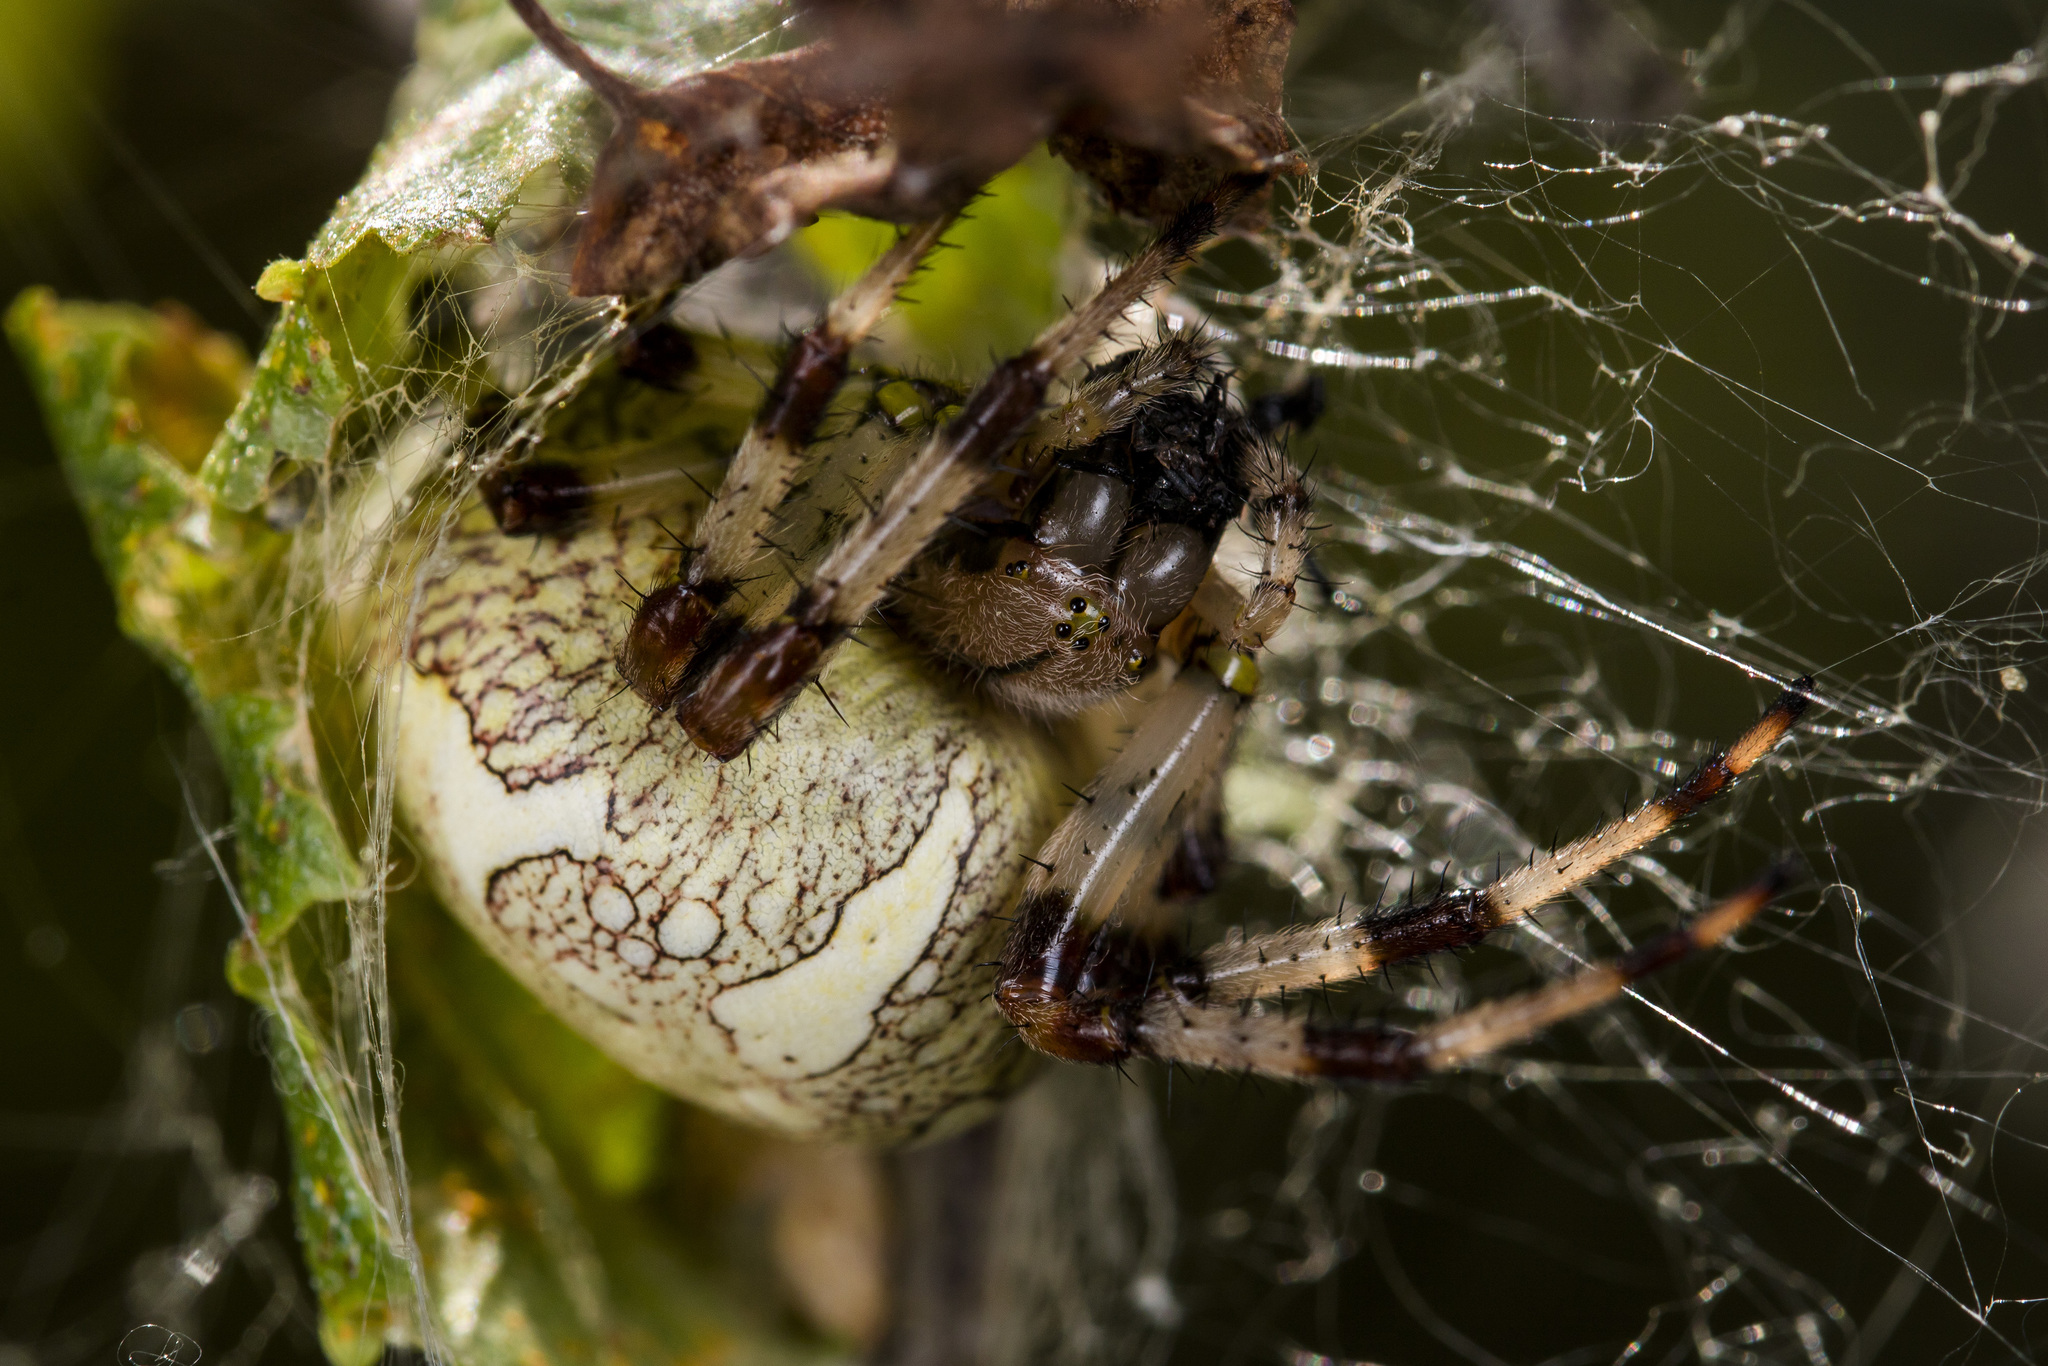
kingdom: Animalia
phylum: Arthropoda
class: Arachnida
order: Araneae
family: Araneidae
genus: Araneus
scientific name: Araneus marmoreus
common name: Marbled orbweaver
